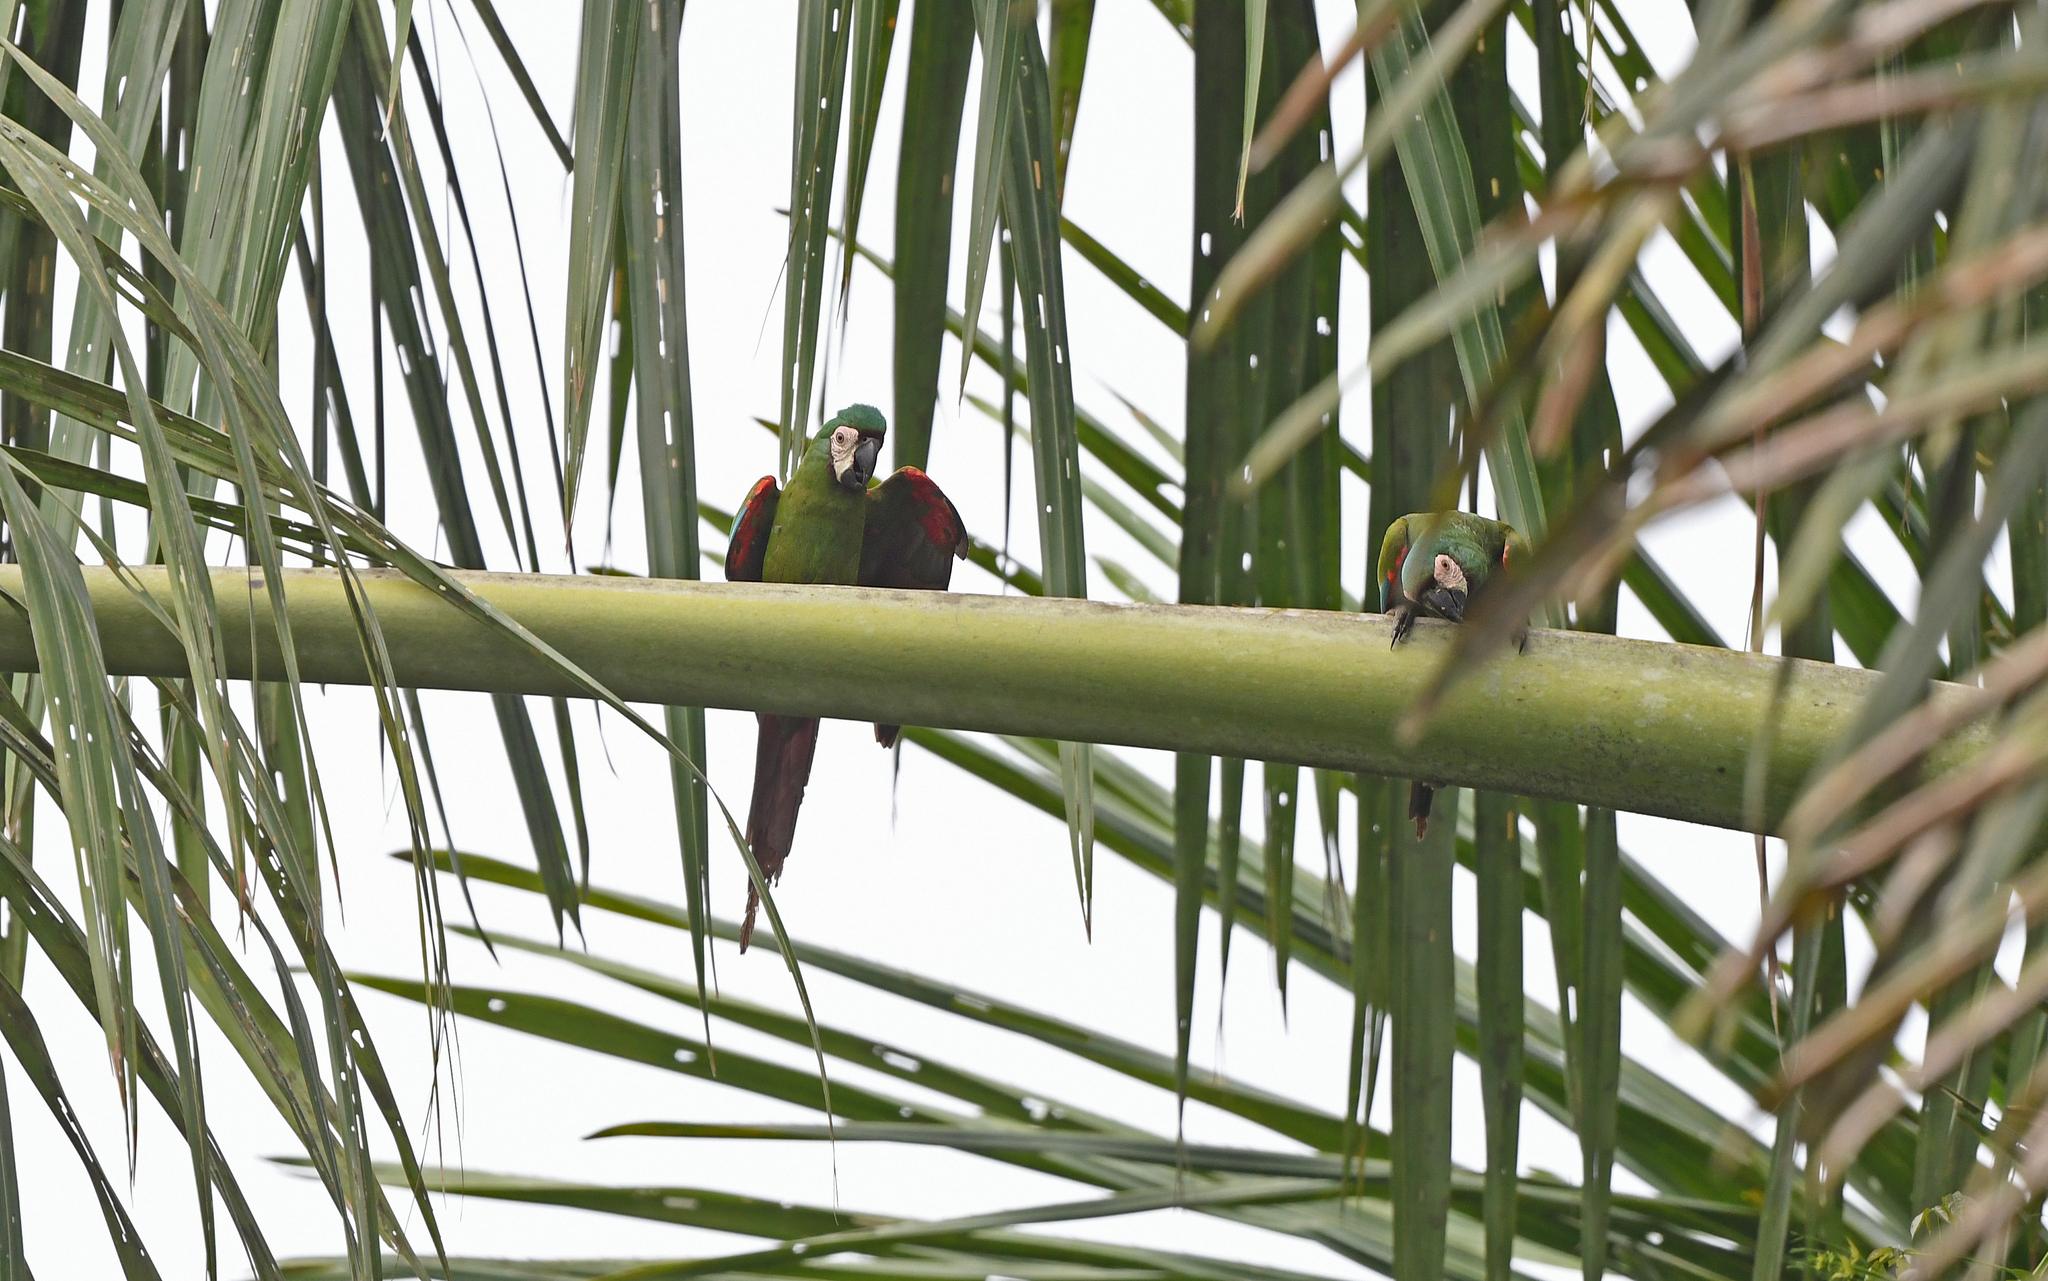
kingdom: Animalia
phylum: Chordata
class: Aves
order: Psittaciformes
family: Psittacidae
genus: Ara
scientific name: Ara severus
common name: Chestnut-fronted macaw
